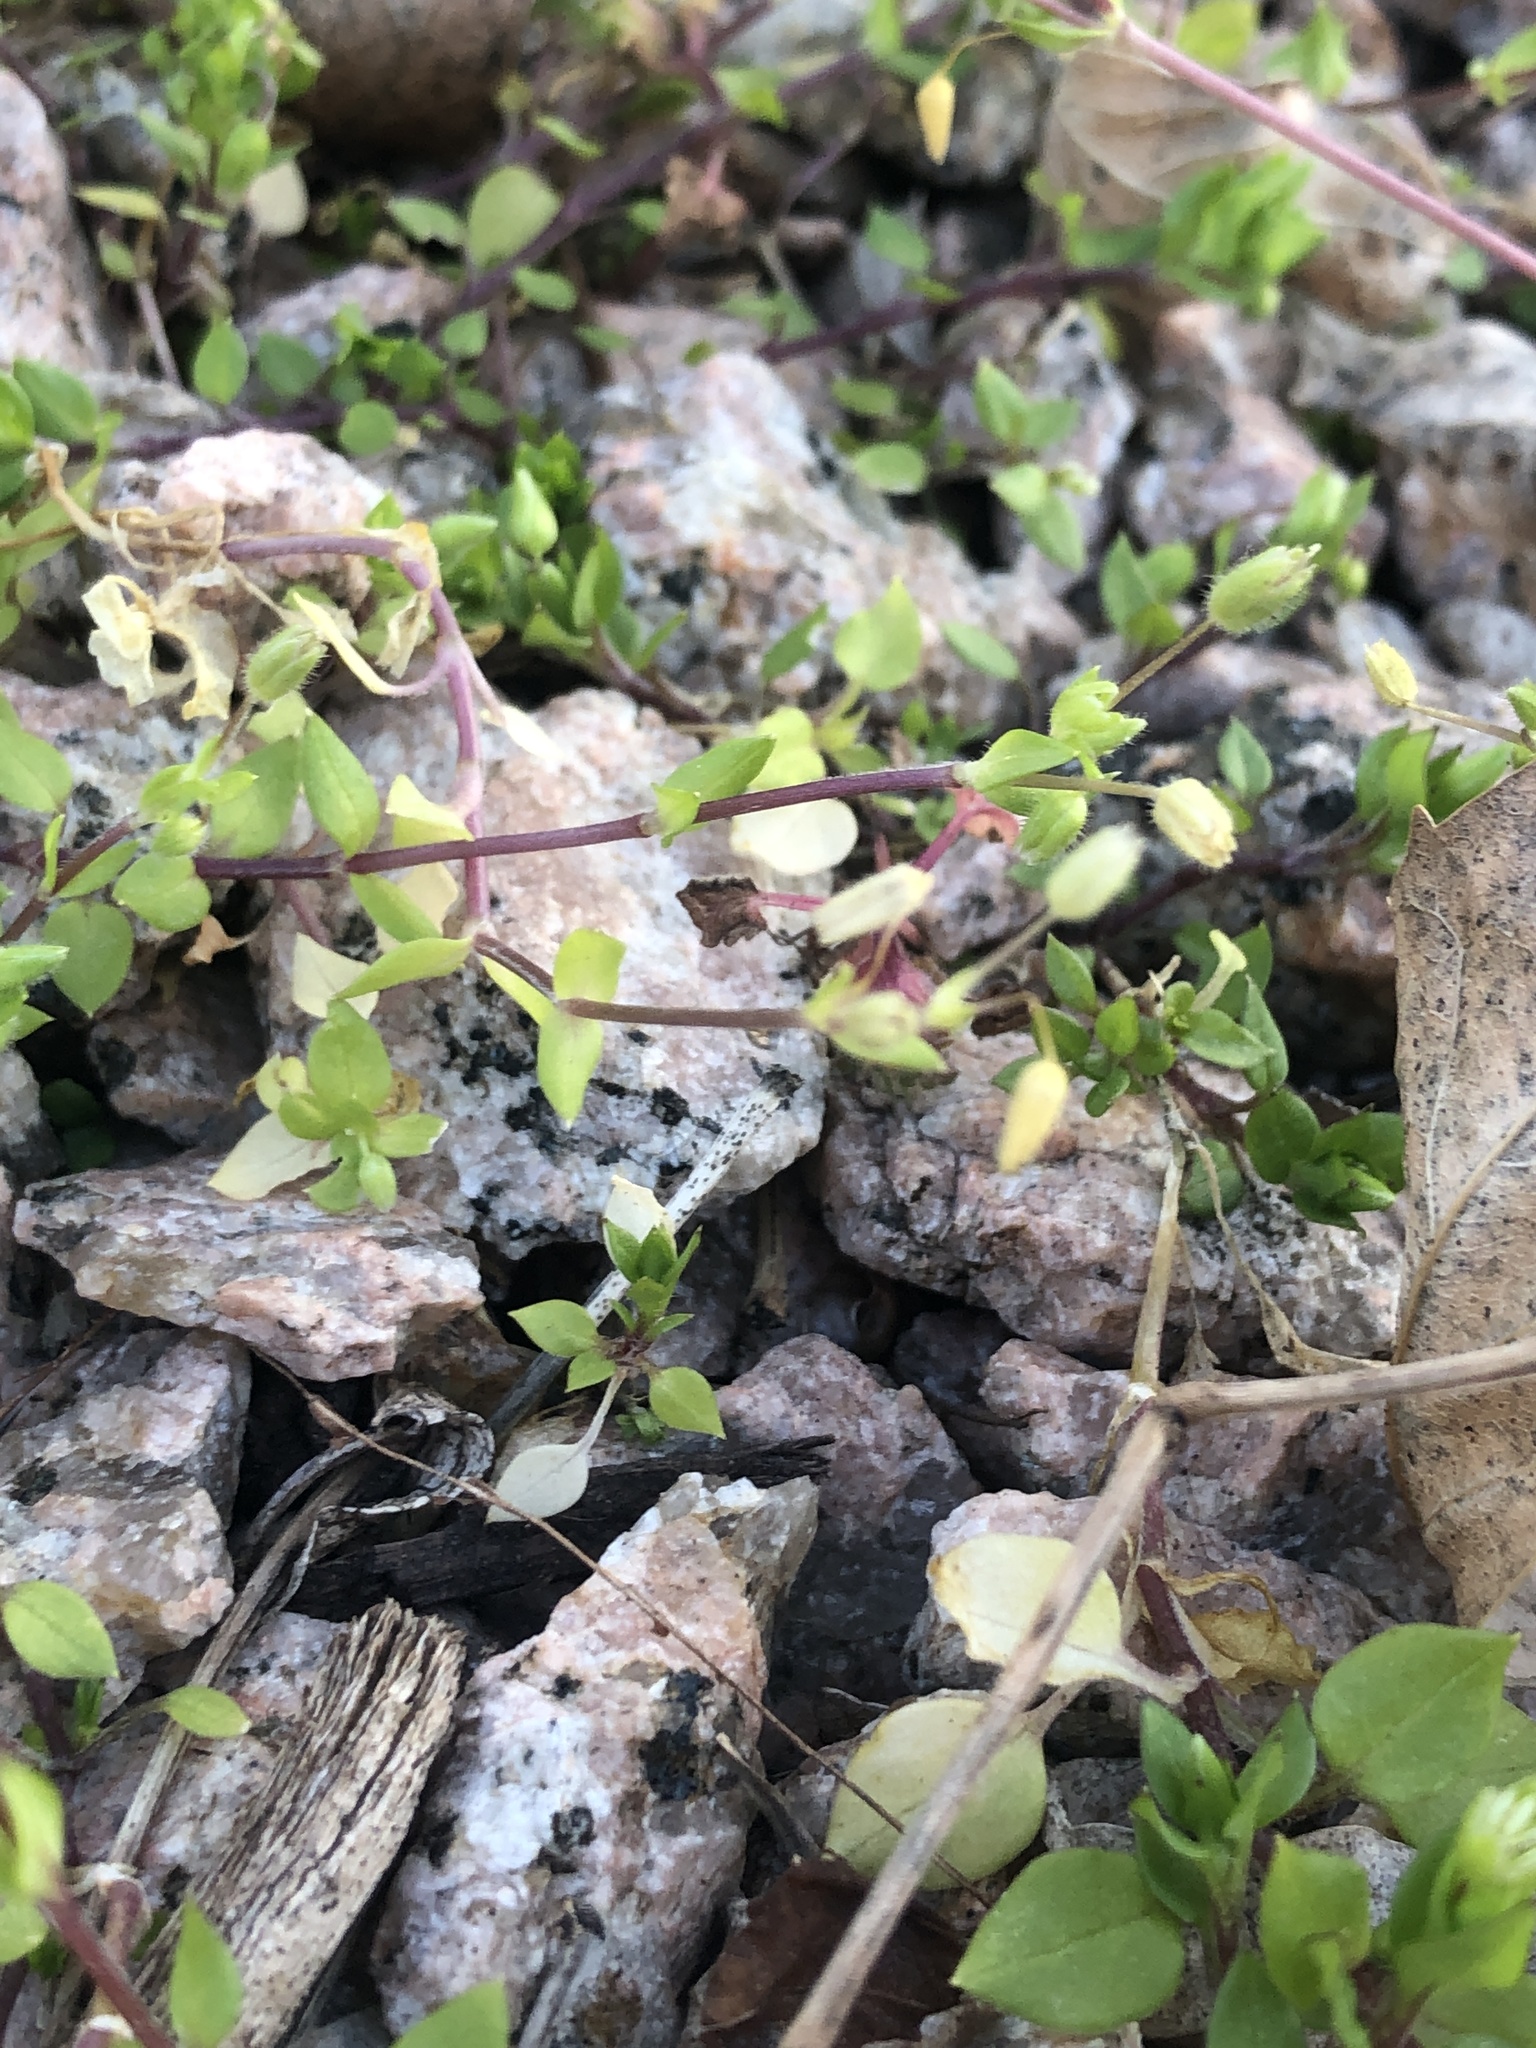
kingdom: Plantae
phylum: Tracheophyta
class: Magnoliopsida
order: Caryophyllales
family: Caryophyllaceae
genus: Stellaria
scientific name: Stellaria media
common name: Common chickweed
